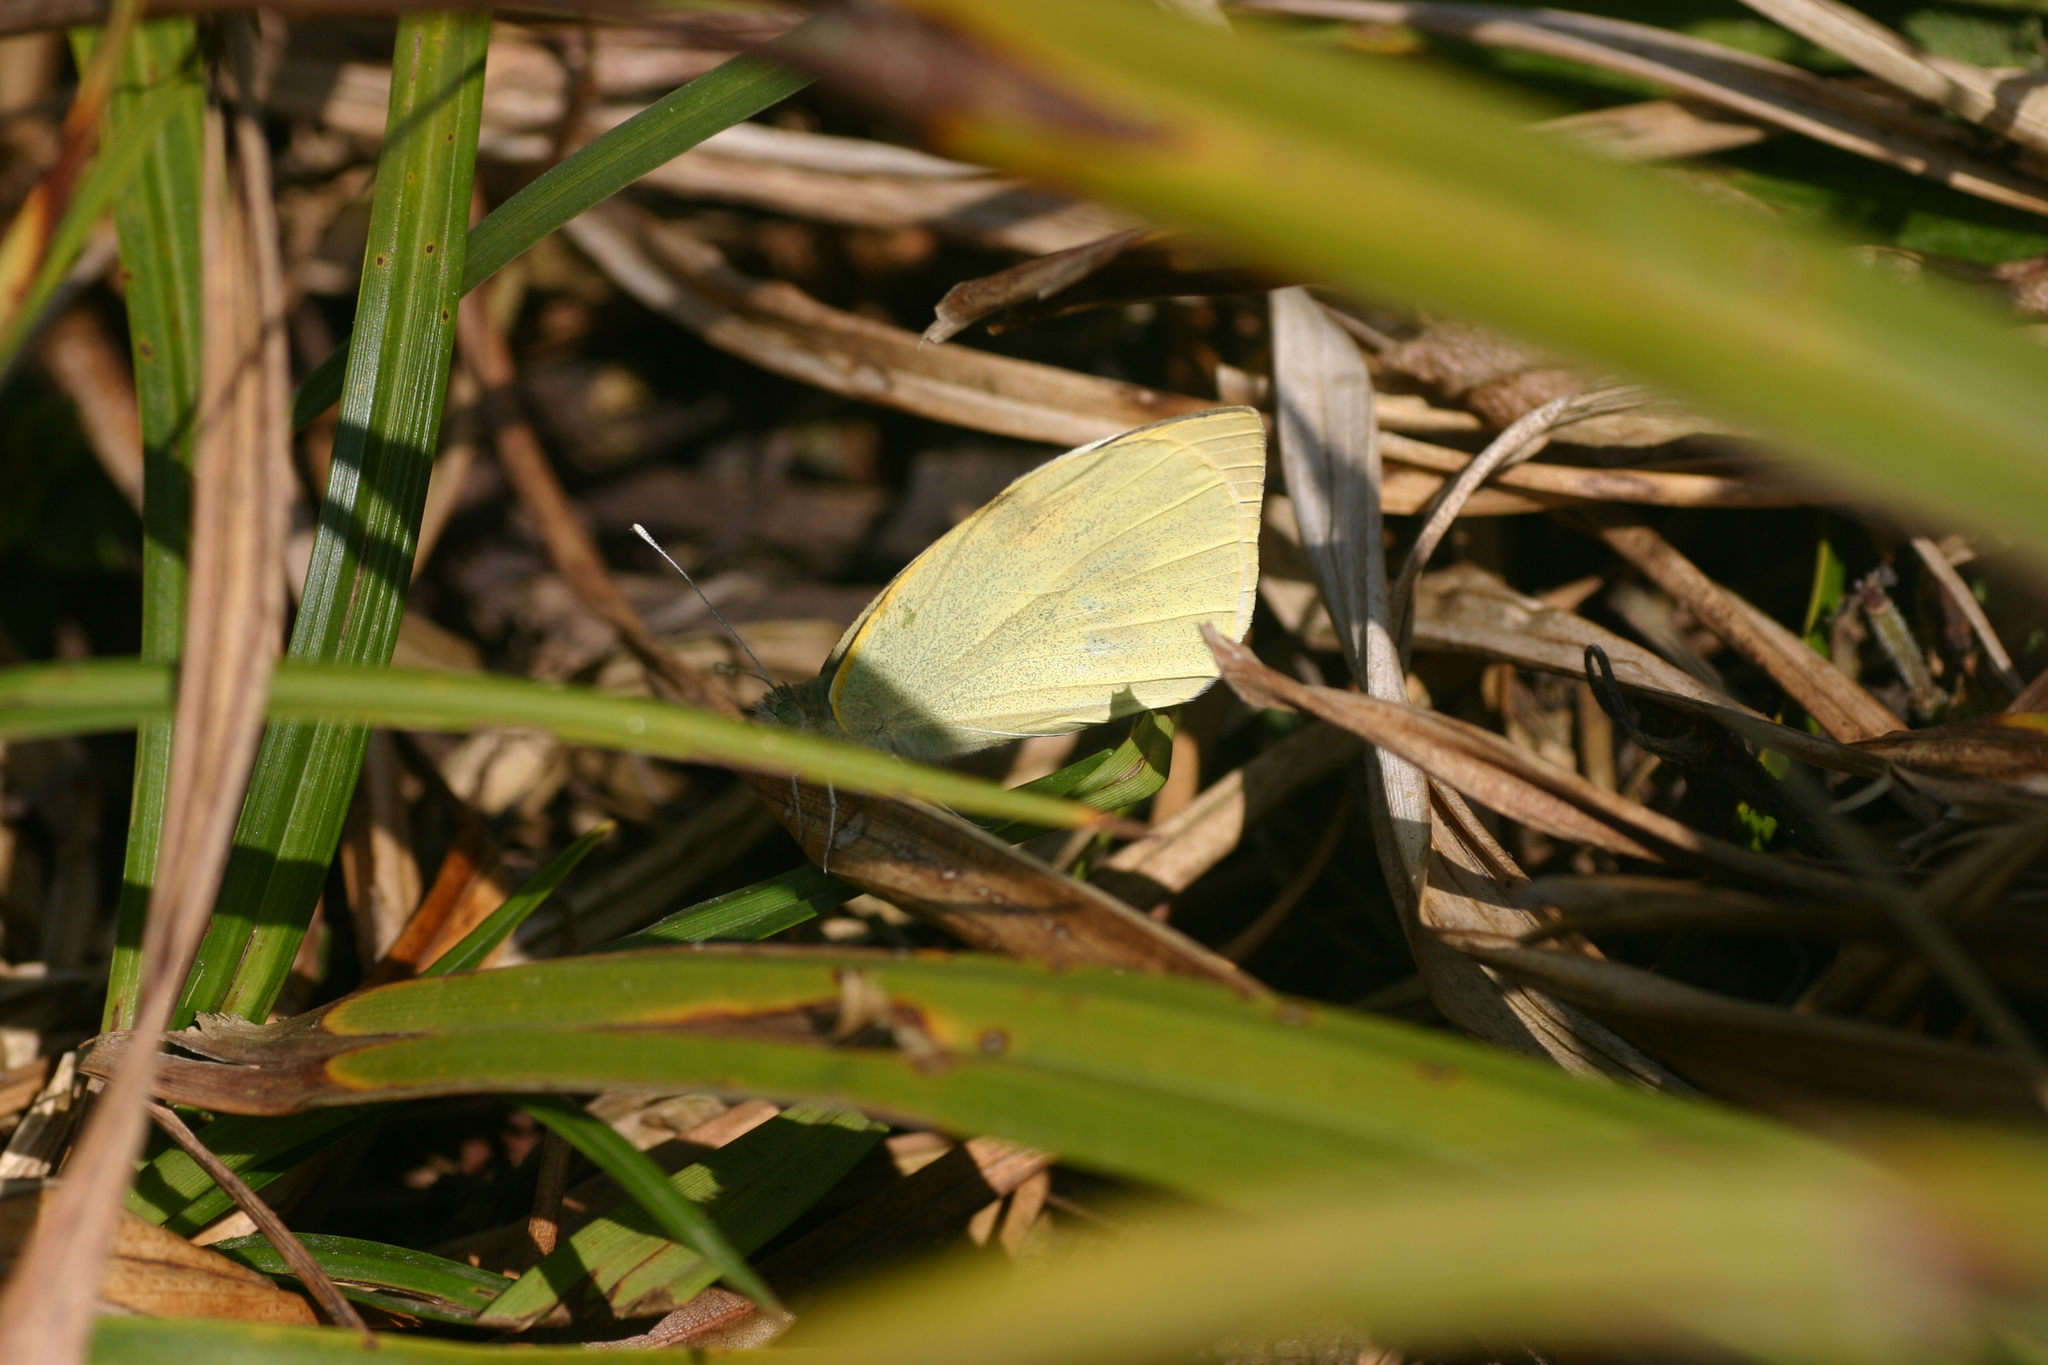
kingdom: Animalia
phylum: Arthropoda
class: Insecta
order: Lepidoptera
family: Pieridae
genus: Pieris
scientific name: Pieris brassicae
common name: Large white
